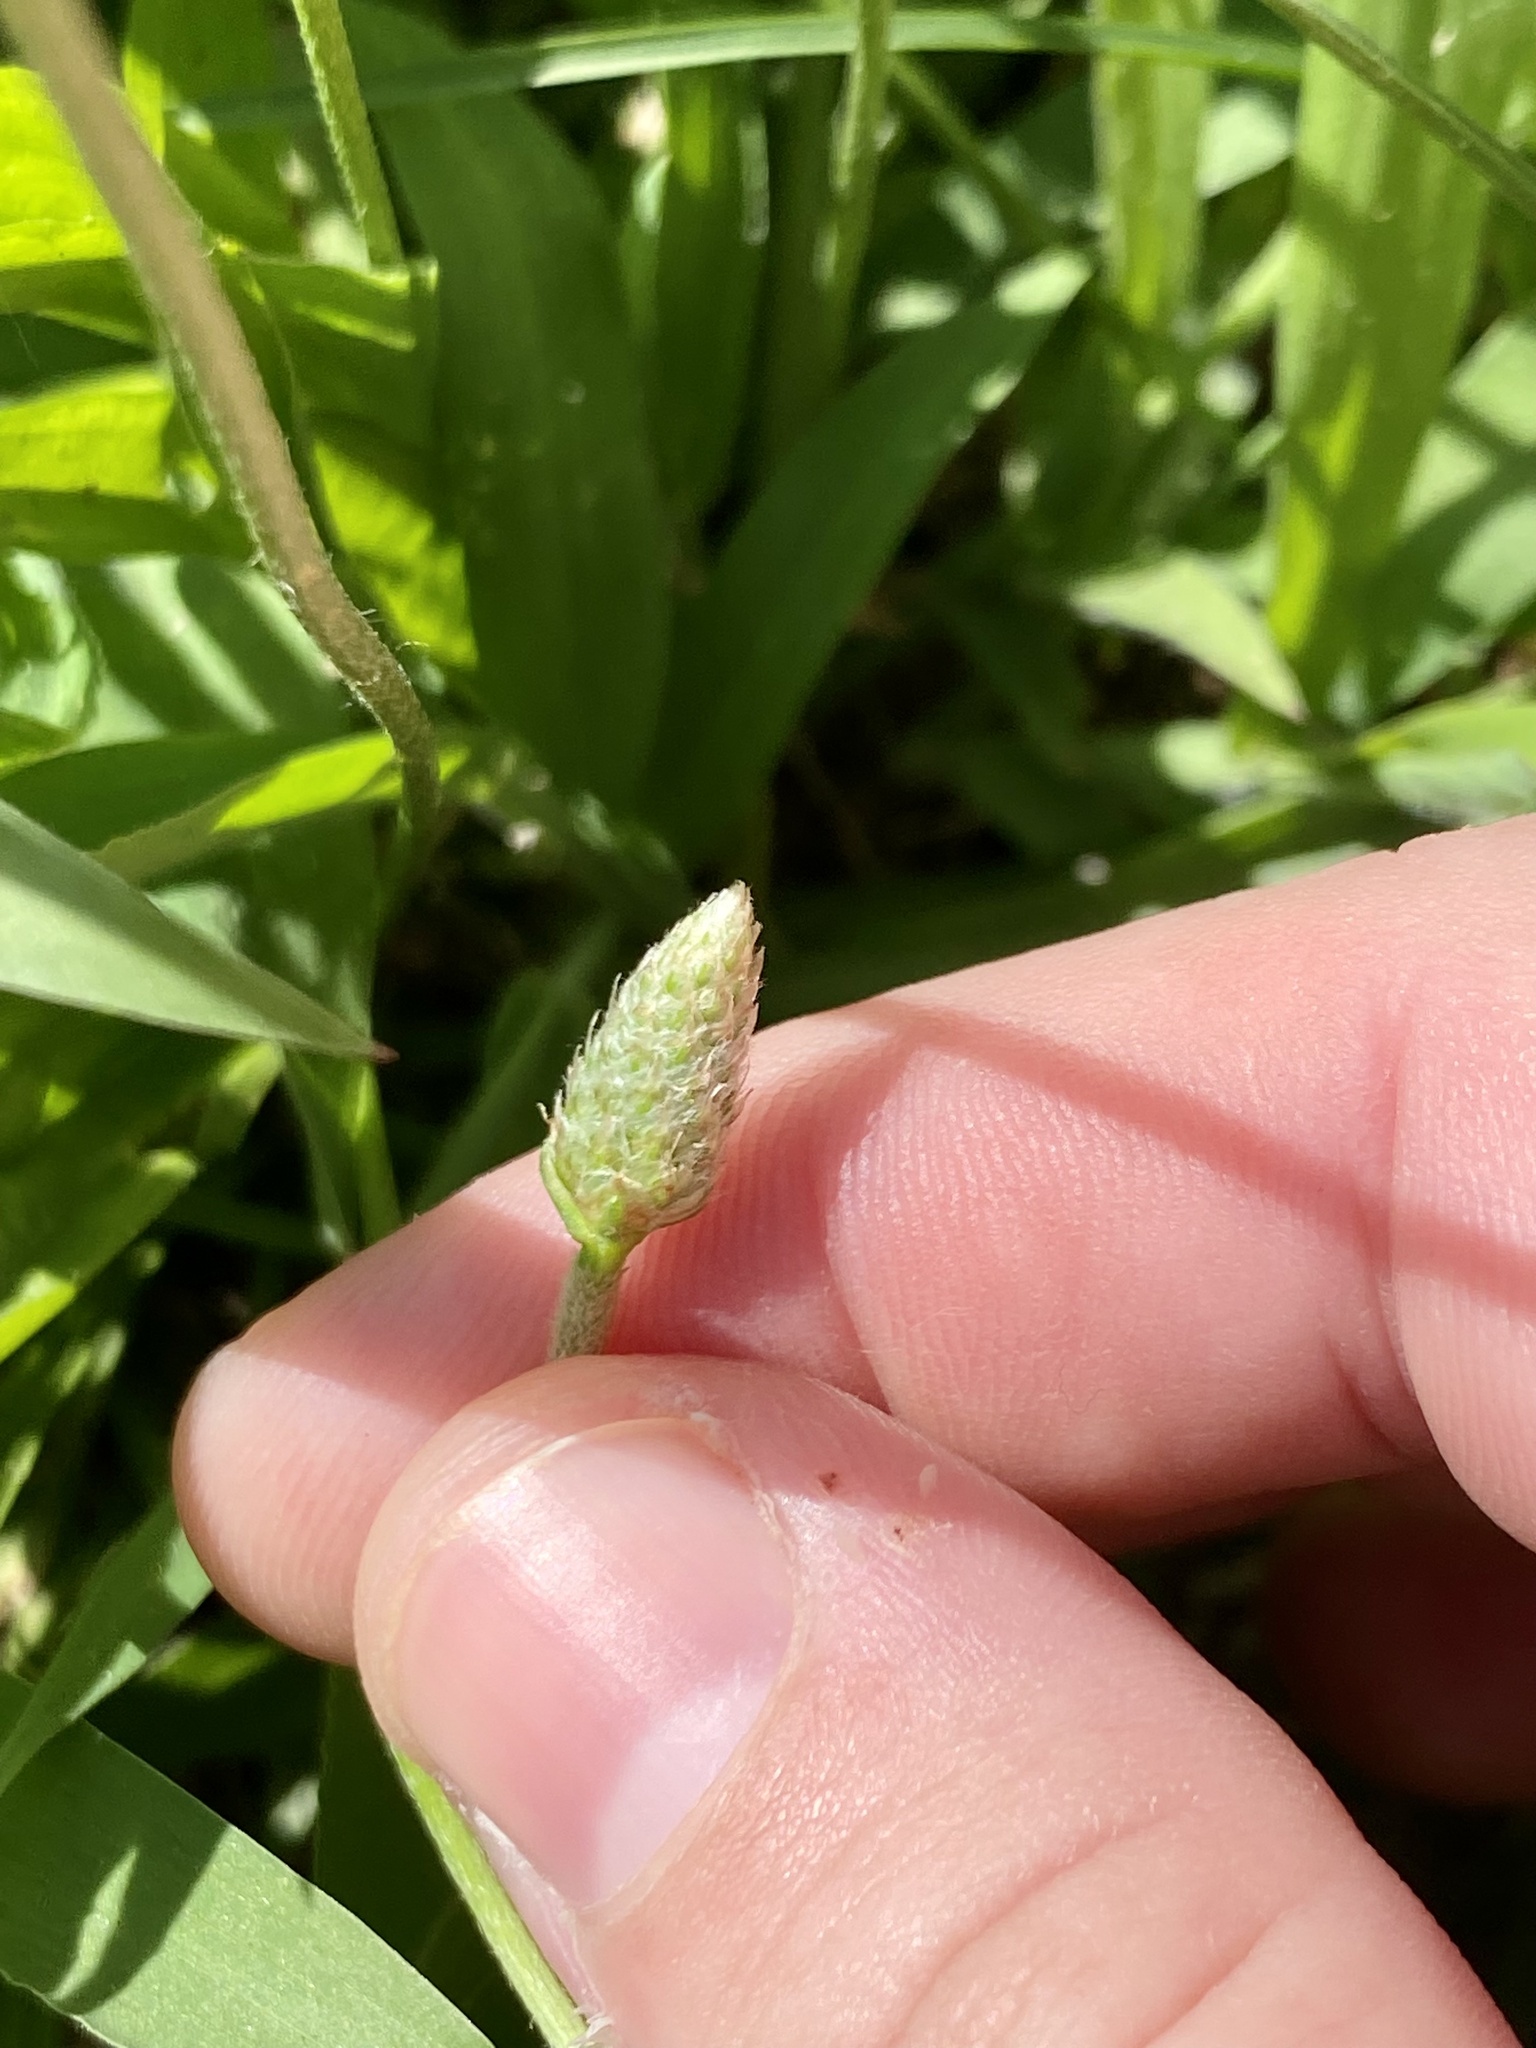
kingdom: Plantae
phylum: Tracheophyta
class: Magnoliopsida
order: Lamiales
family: Plantaginaceae
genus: Plantago
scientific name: Plantago lanceolata
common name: Ribwort plantain
